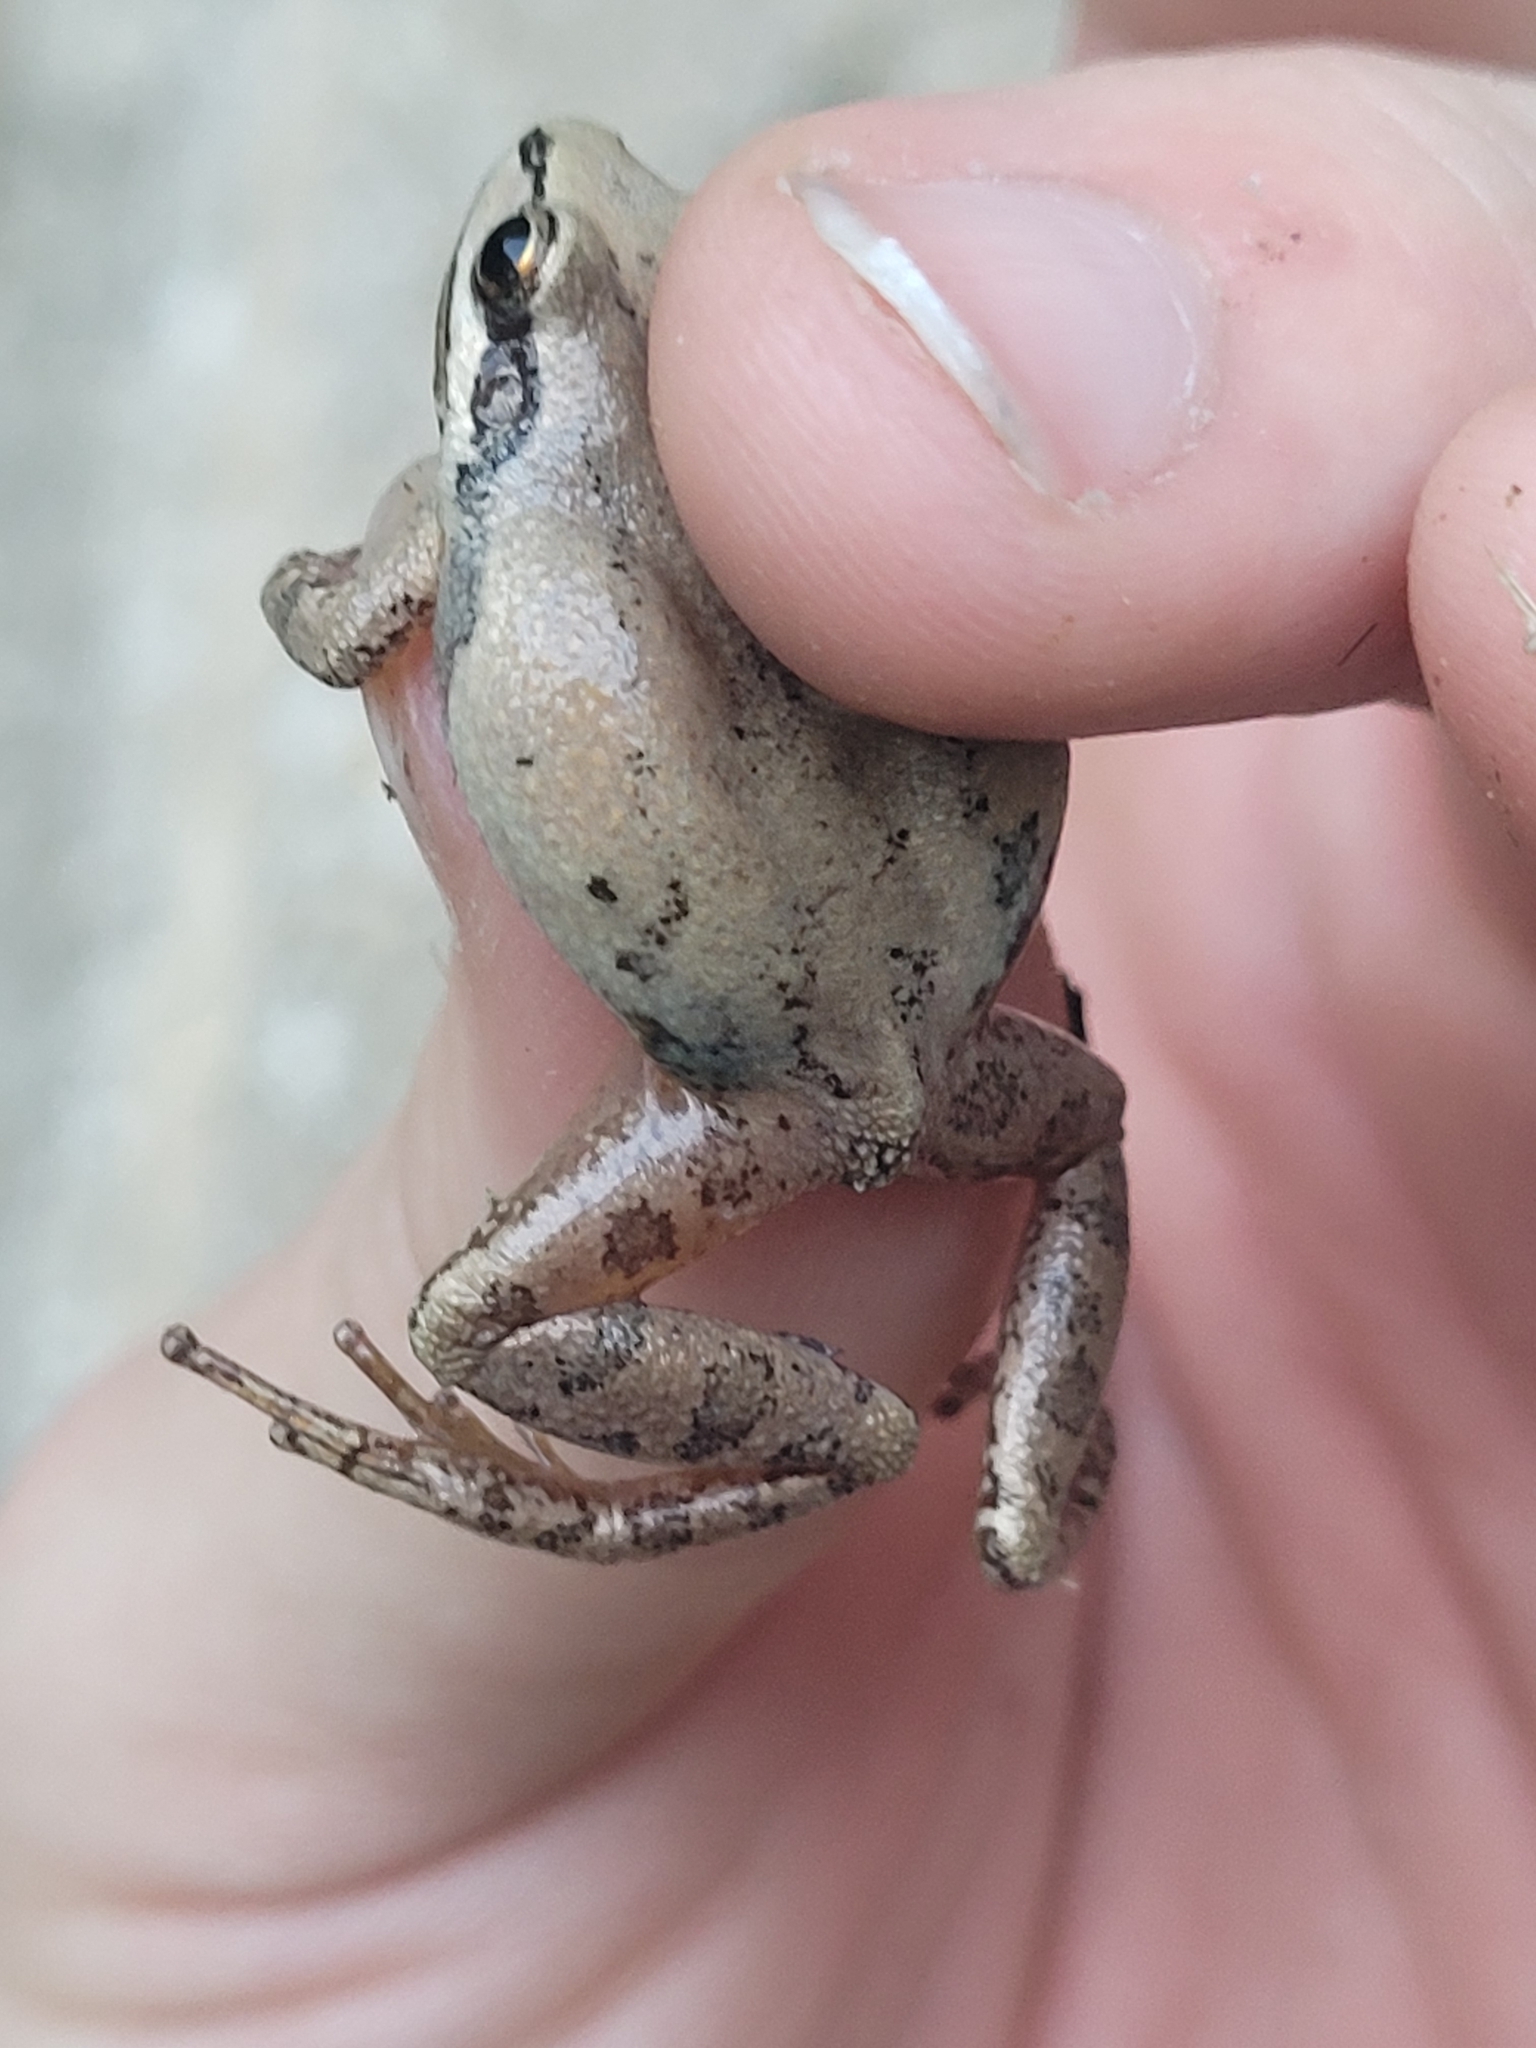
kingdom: Animalia
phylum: Chordata
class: Amphibia
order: Anura
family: Hylidae
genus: Pseudacris
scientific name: Pseudacris feriarum
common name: Upland chorus frog
